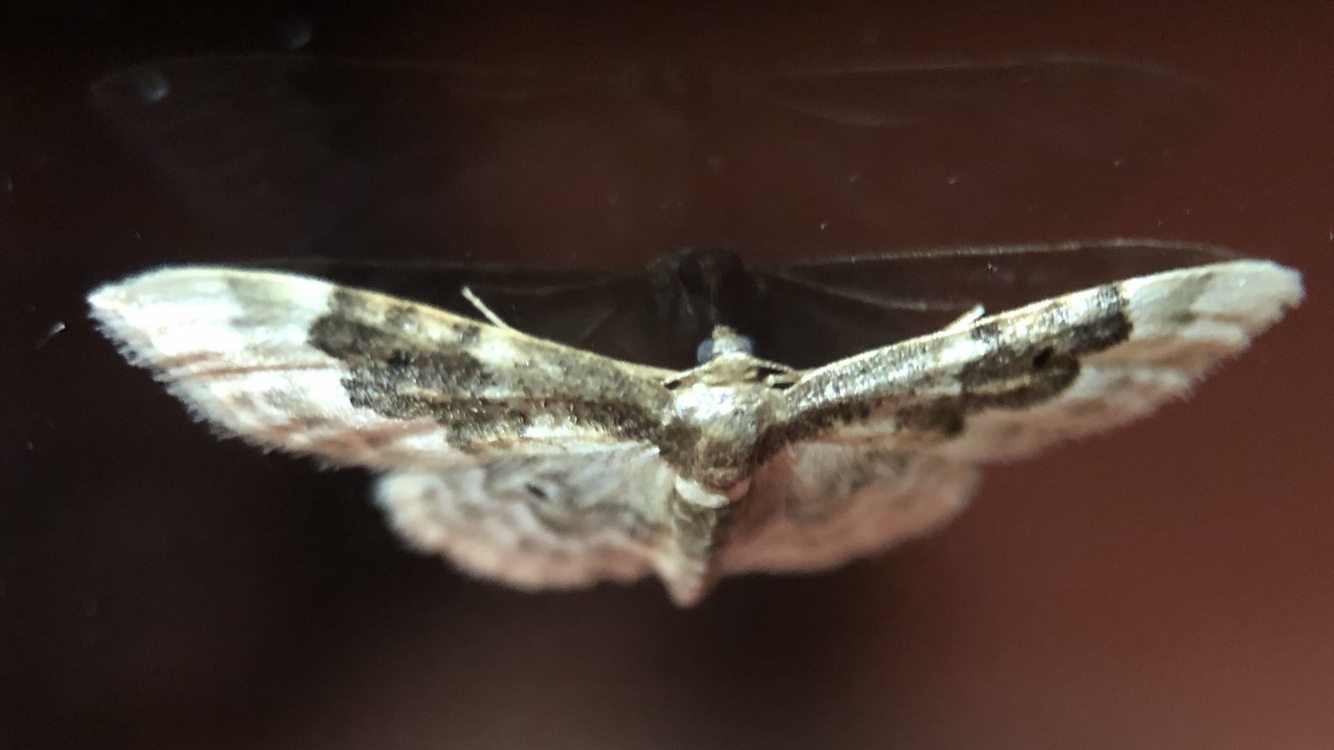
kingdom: Animalia
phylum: Arthropoda
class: Insecta
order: Lepidoptera
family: Geometridae
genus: Idaea
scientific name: Idaea rusticata
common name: Least carpet
